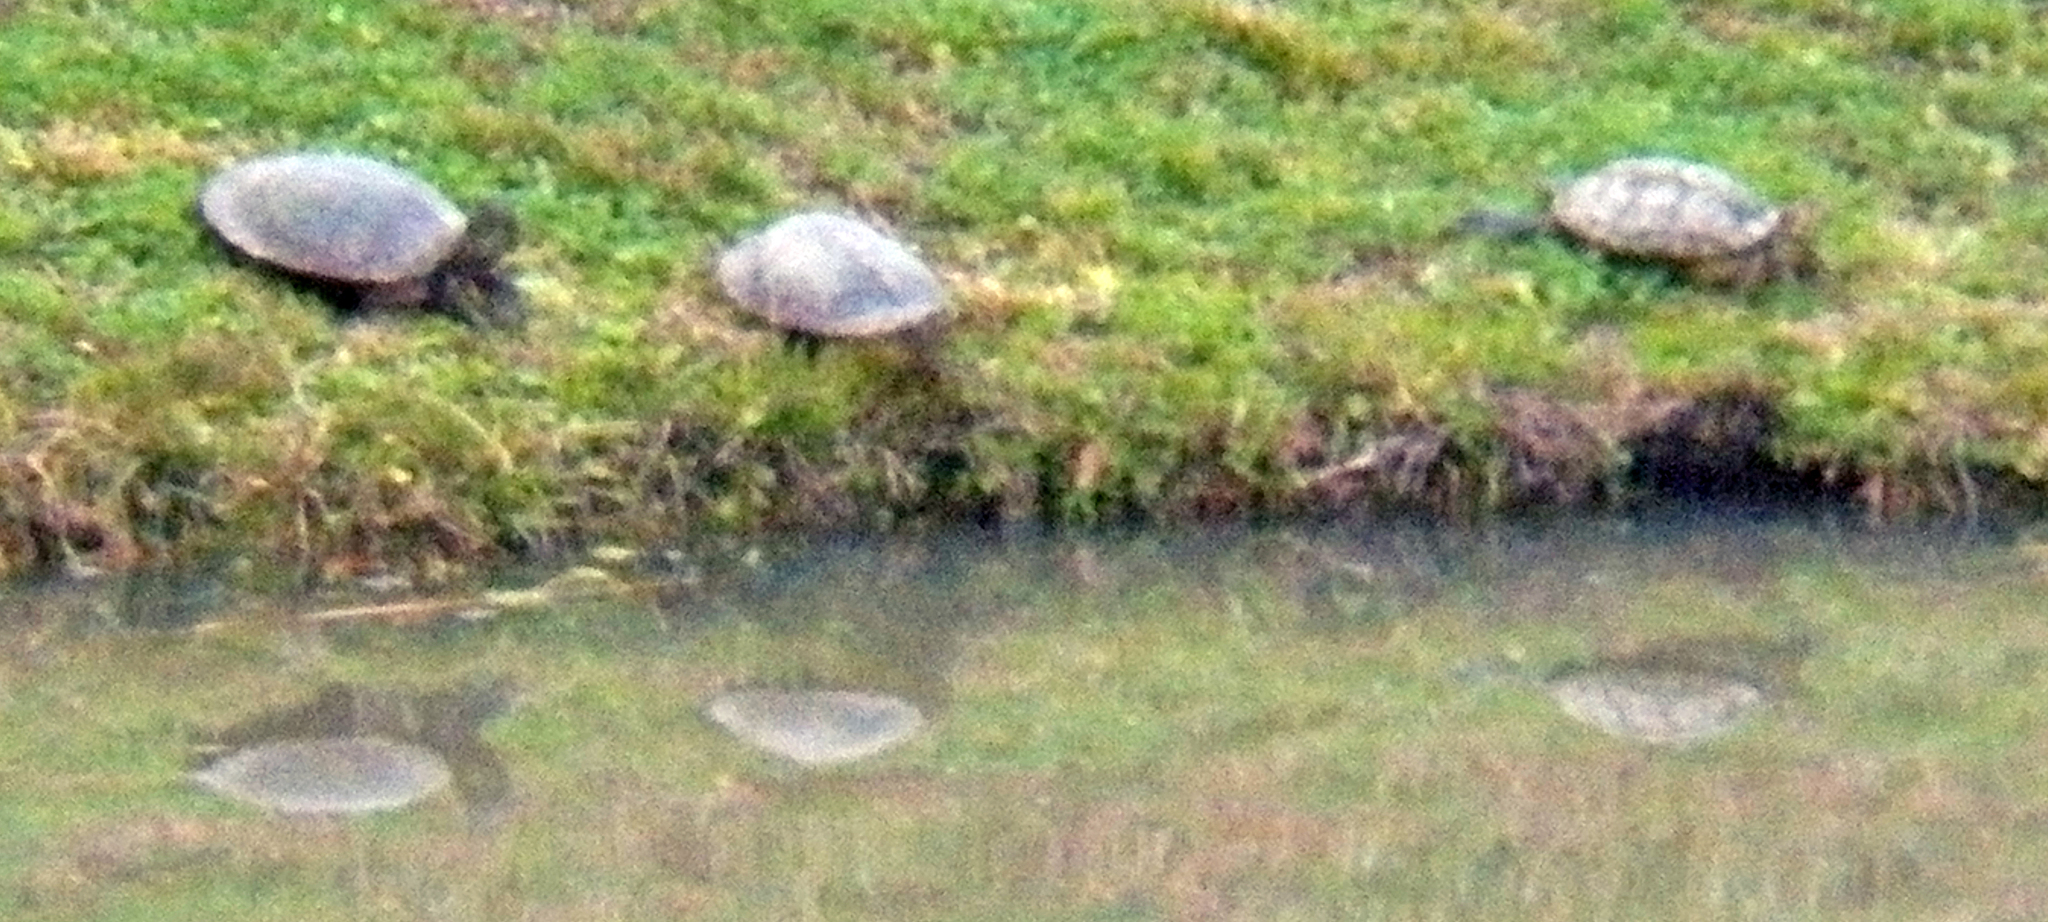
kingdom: Animalia
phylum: Chordata
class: Testudines
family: Emydidae
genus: Trachemys
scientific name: Trachemys scripta
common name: Slider
